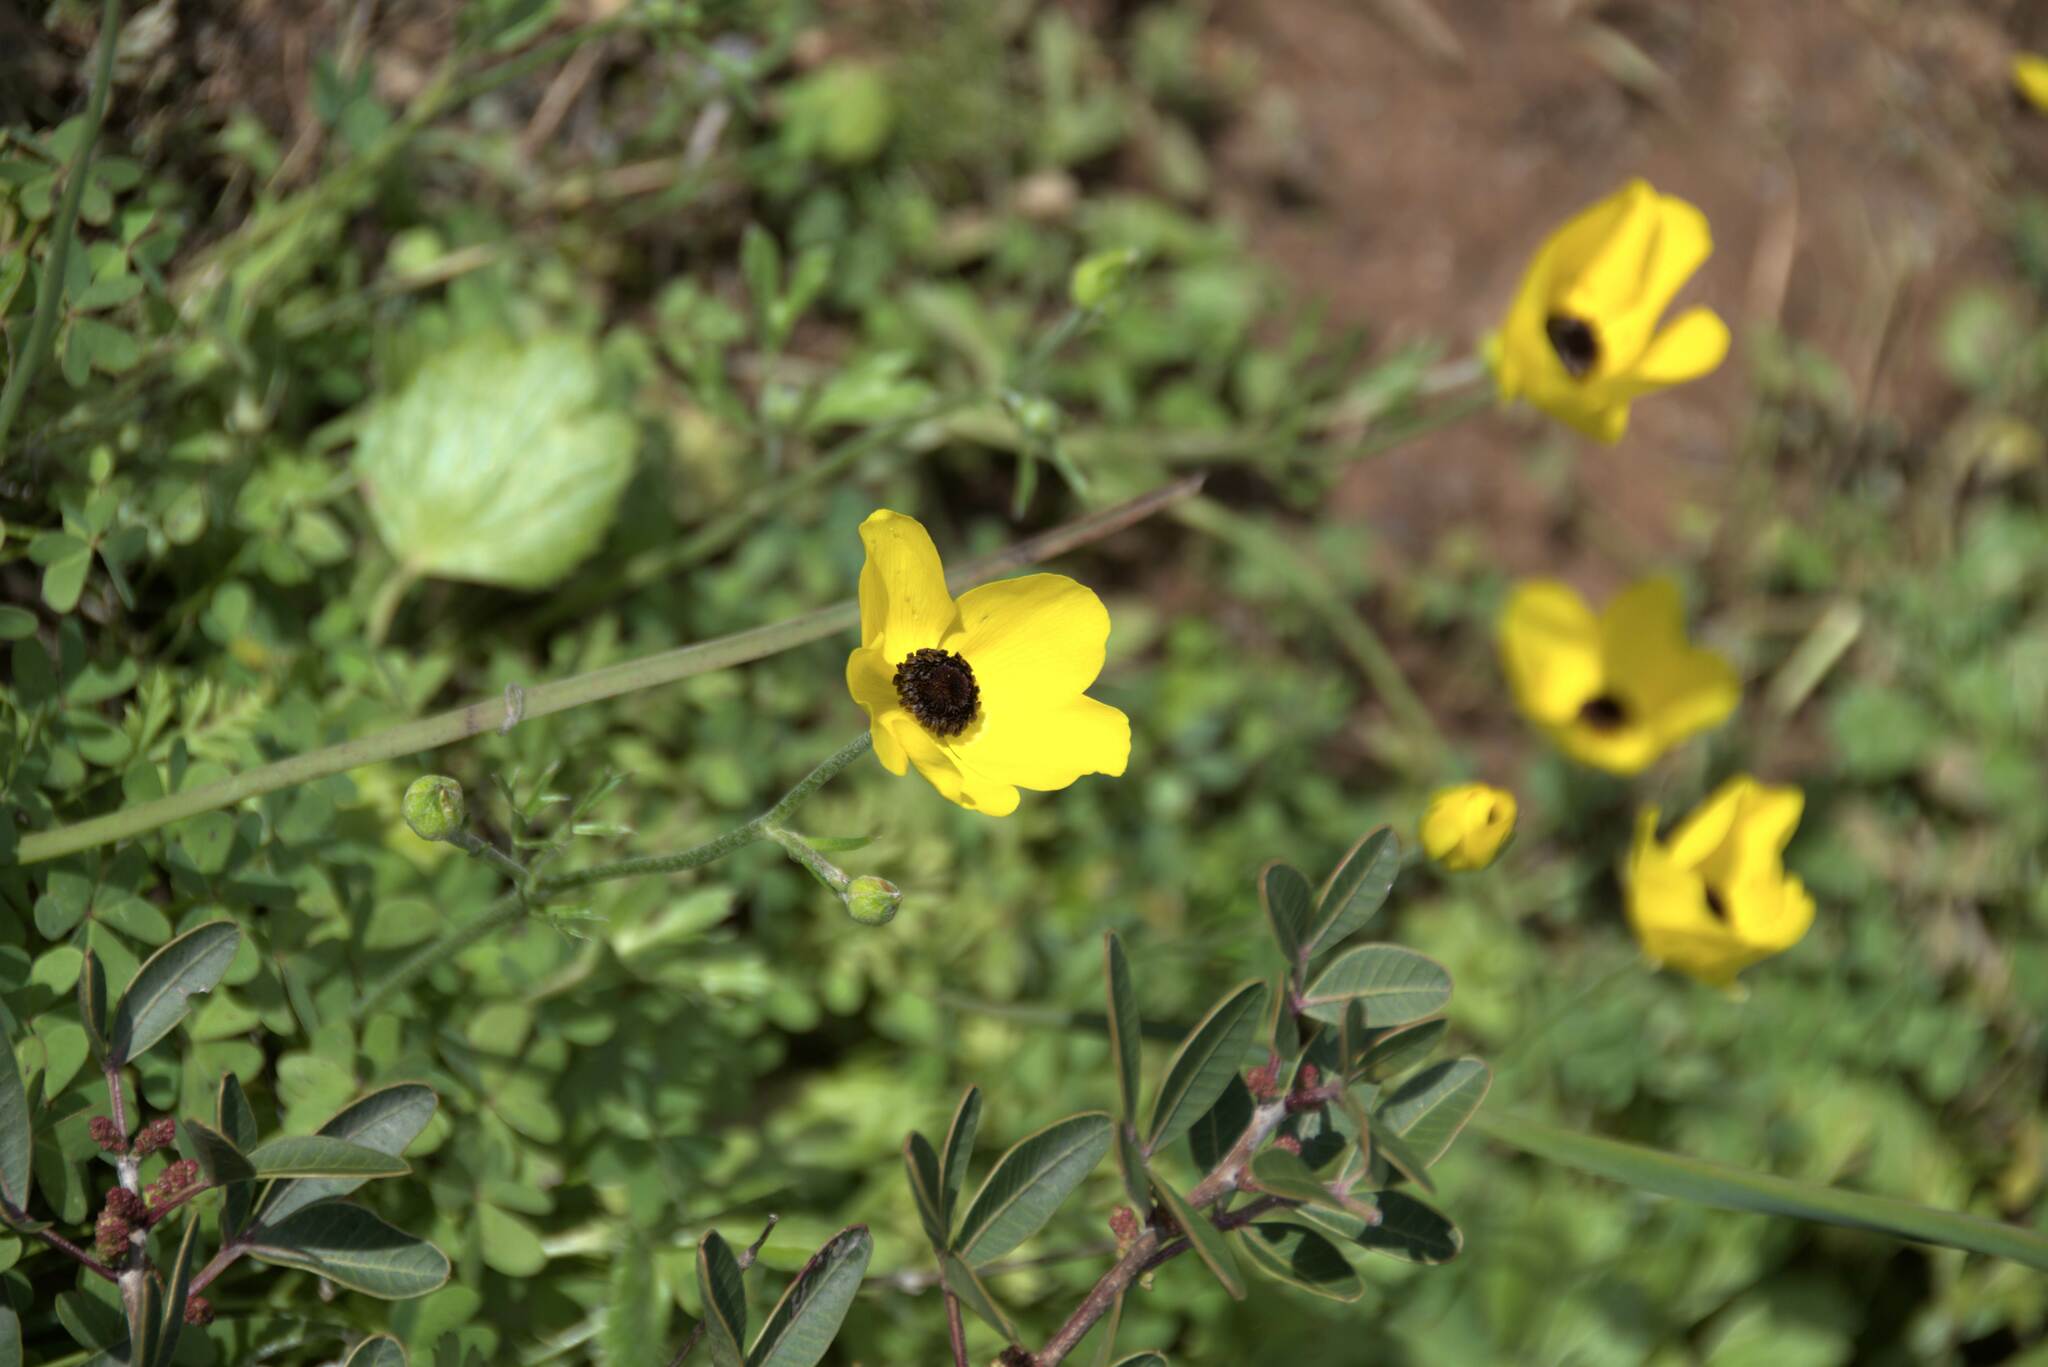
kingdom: Plantae
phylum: Tracheophyta
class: Magnoliopsida
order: Ranunculales
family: Ranunculaceae
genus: Ranunculus
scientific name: Ranunculus asiaticus
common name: Persian buttercup
